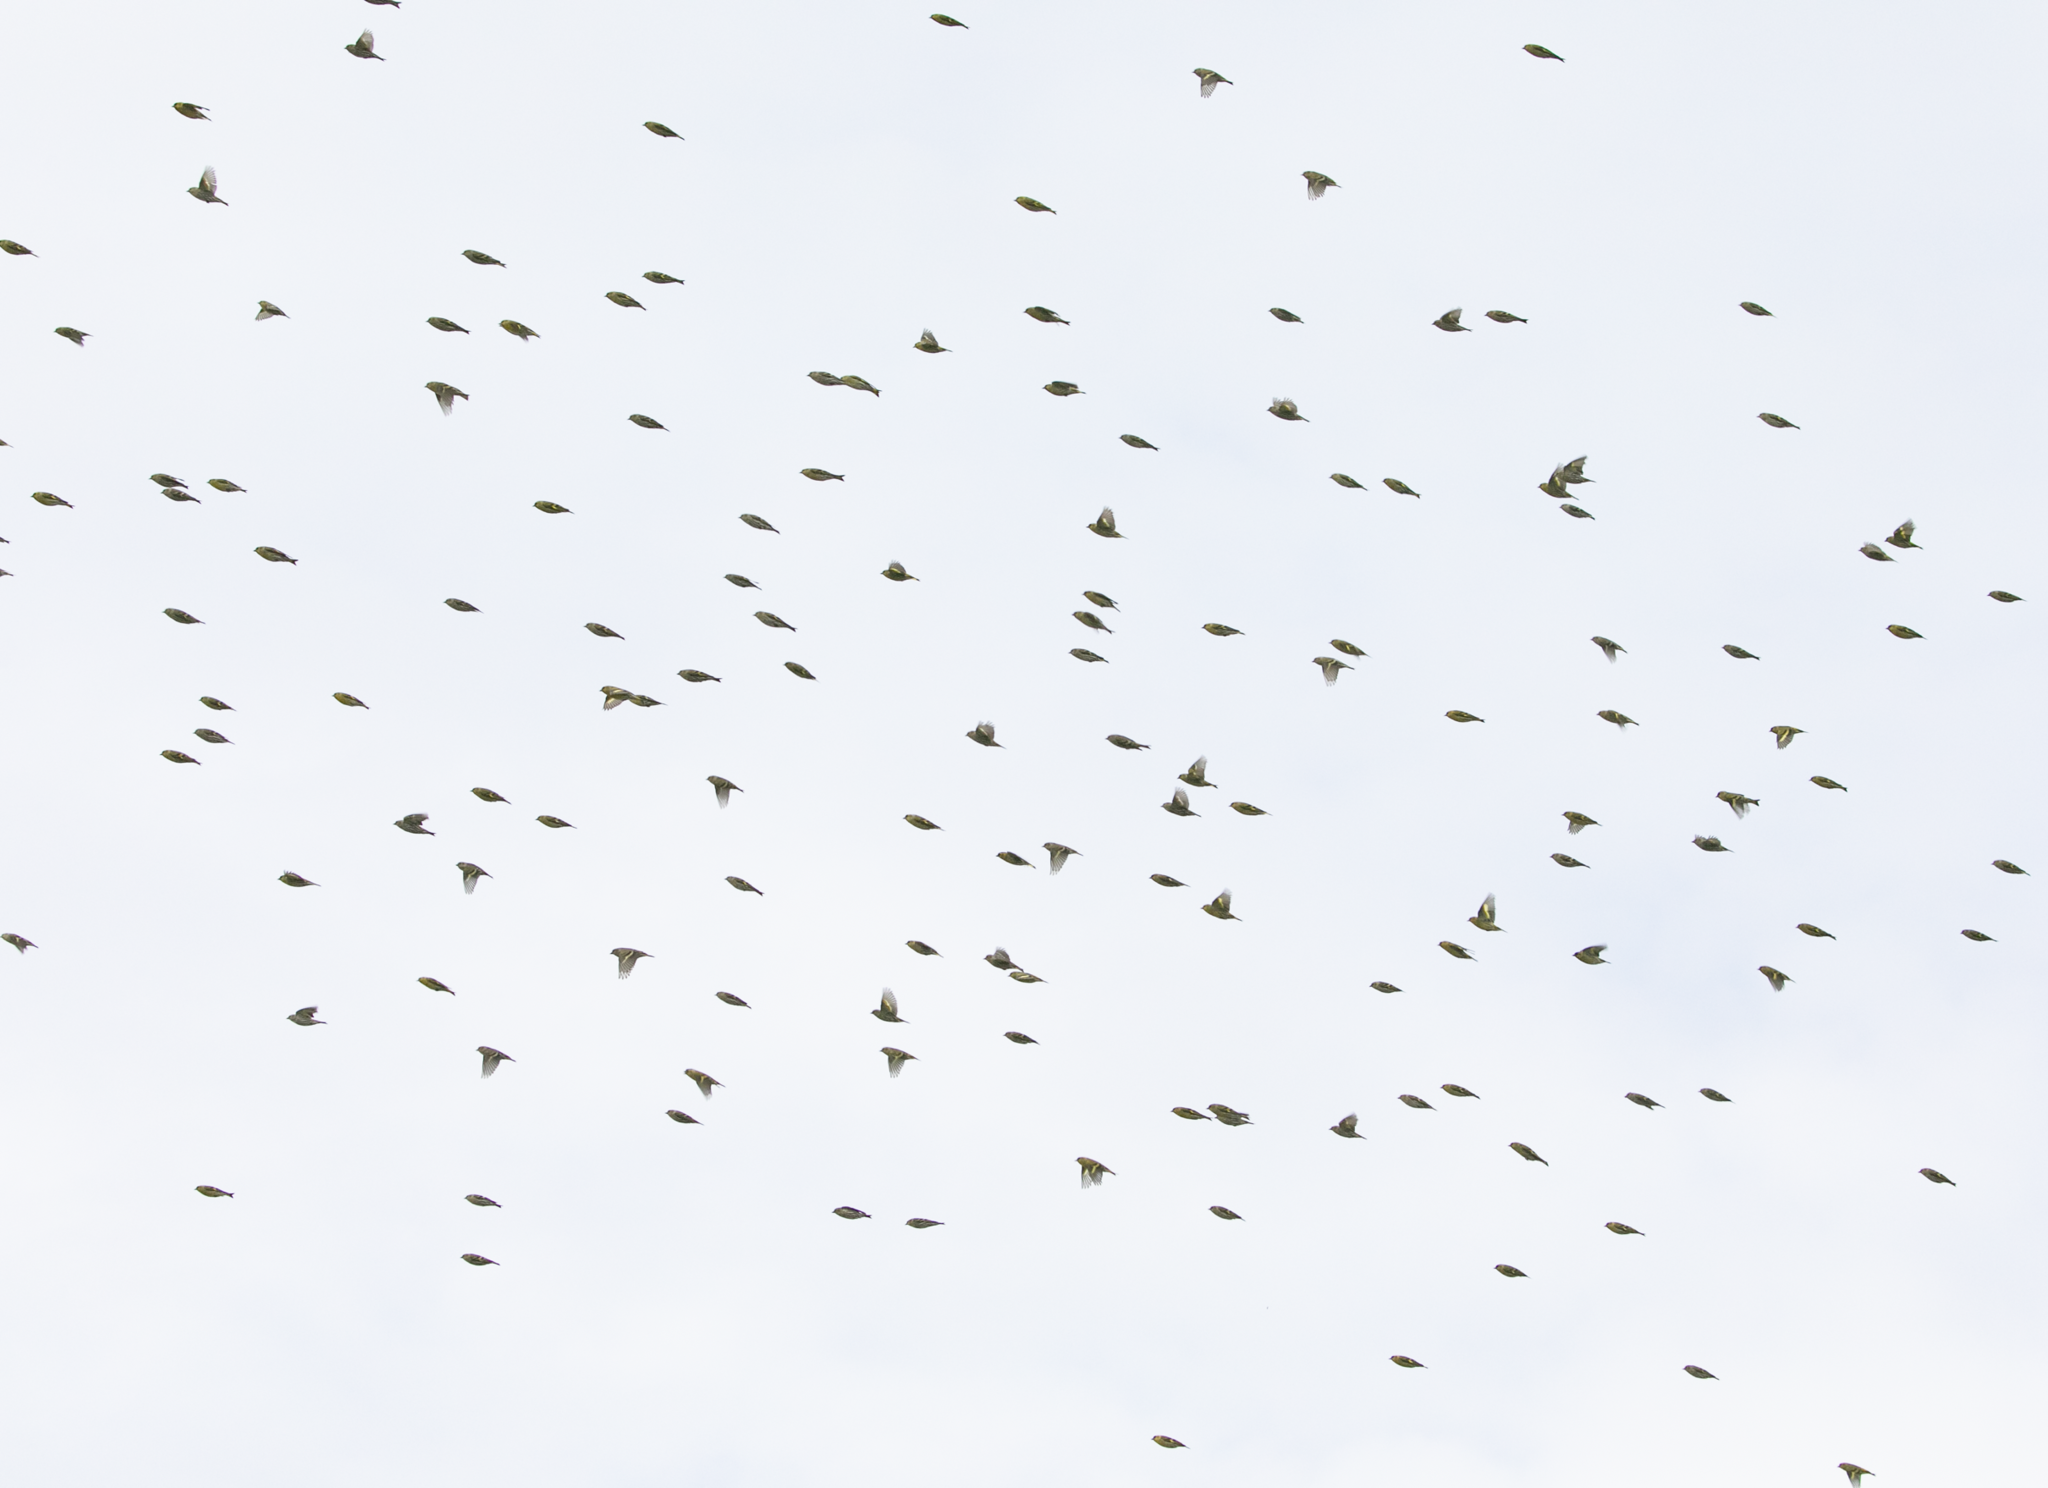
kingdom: Animalia
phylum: Chordata
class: Aves
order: Passeriformes
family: Fringillidae
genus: Spinus
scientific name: Spinus spinus
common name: Eurasian siskin
